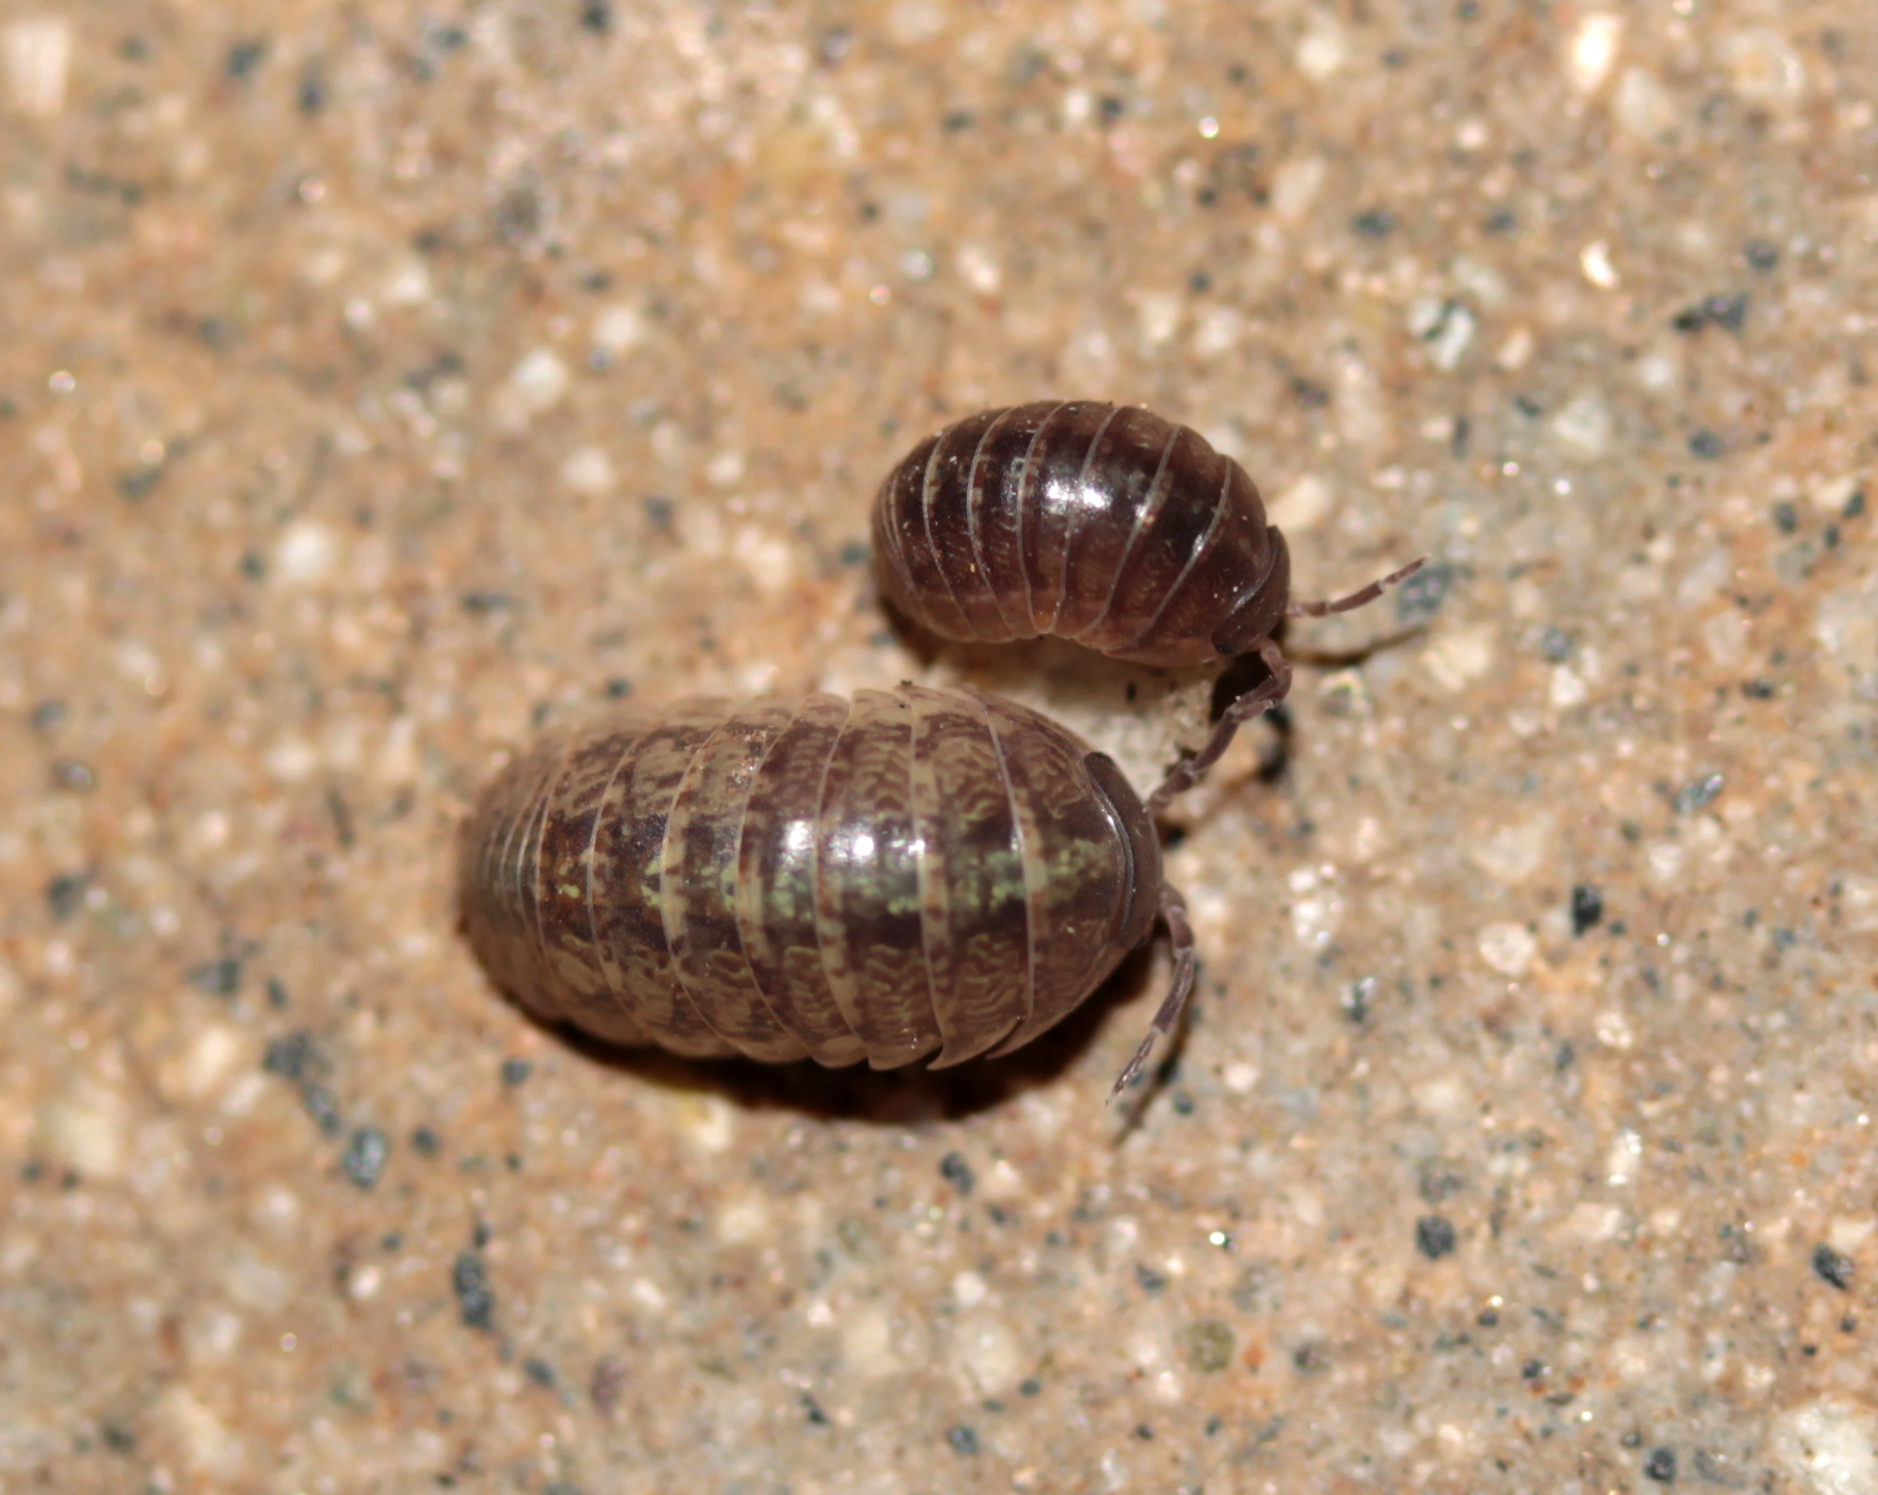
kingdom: Animalia
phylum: Arthropoda
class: Malacostraca
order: Isopoda
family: Armadillidiidae
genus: Armadillidium
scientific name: Armadillidium vulgare
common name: Common pill woodlouse
